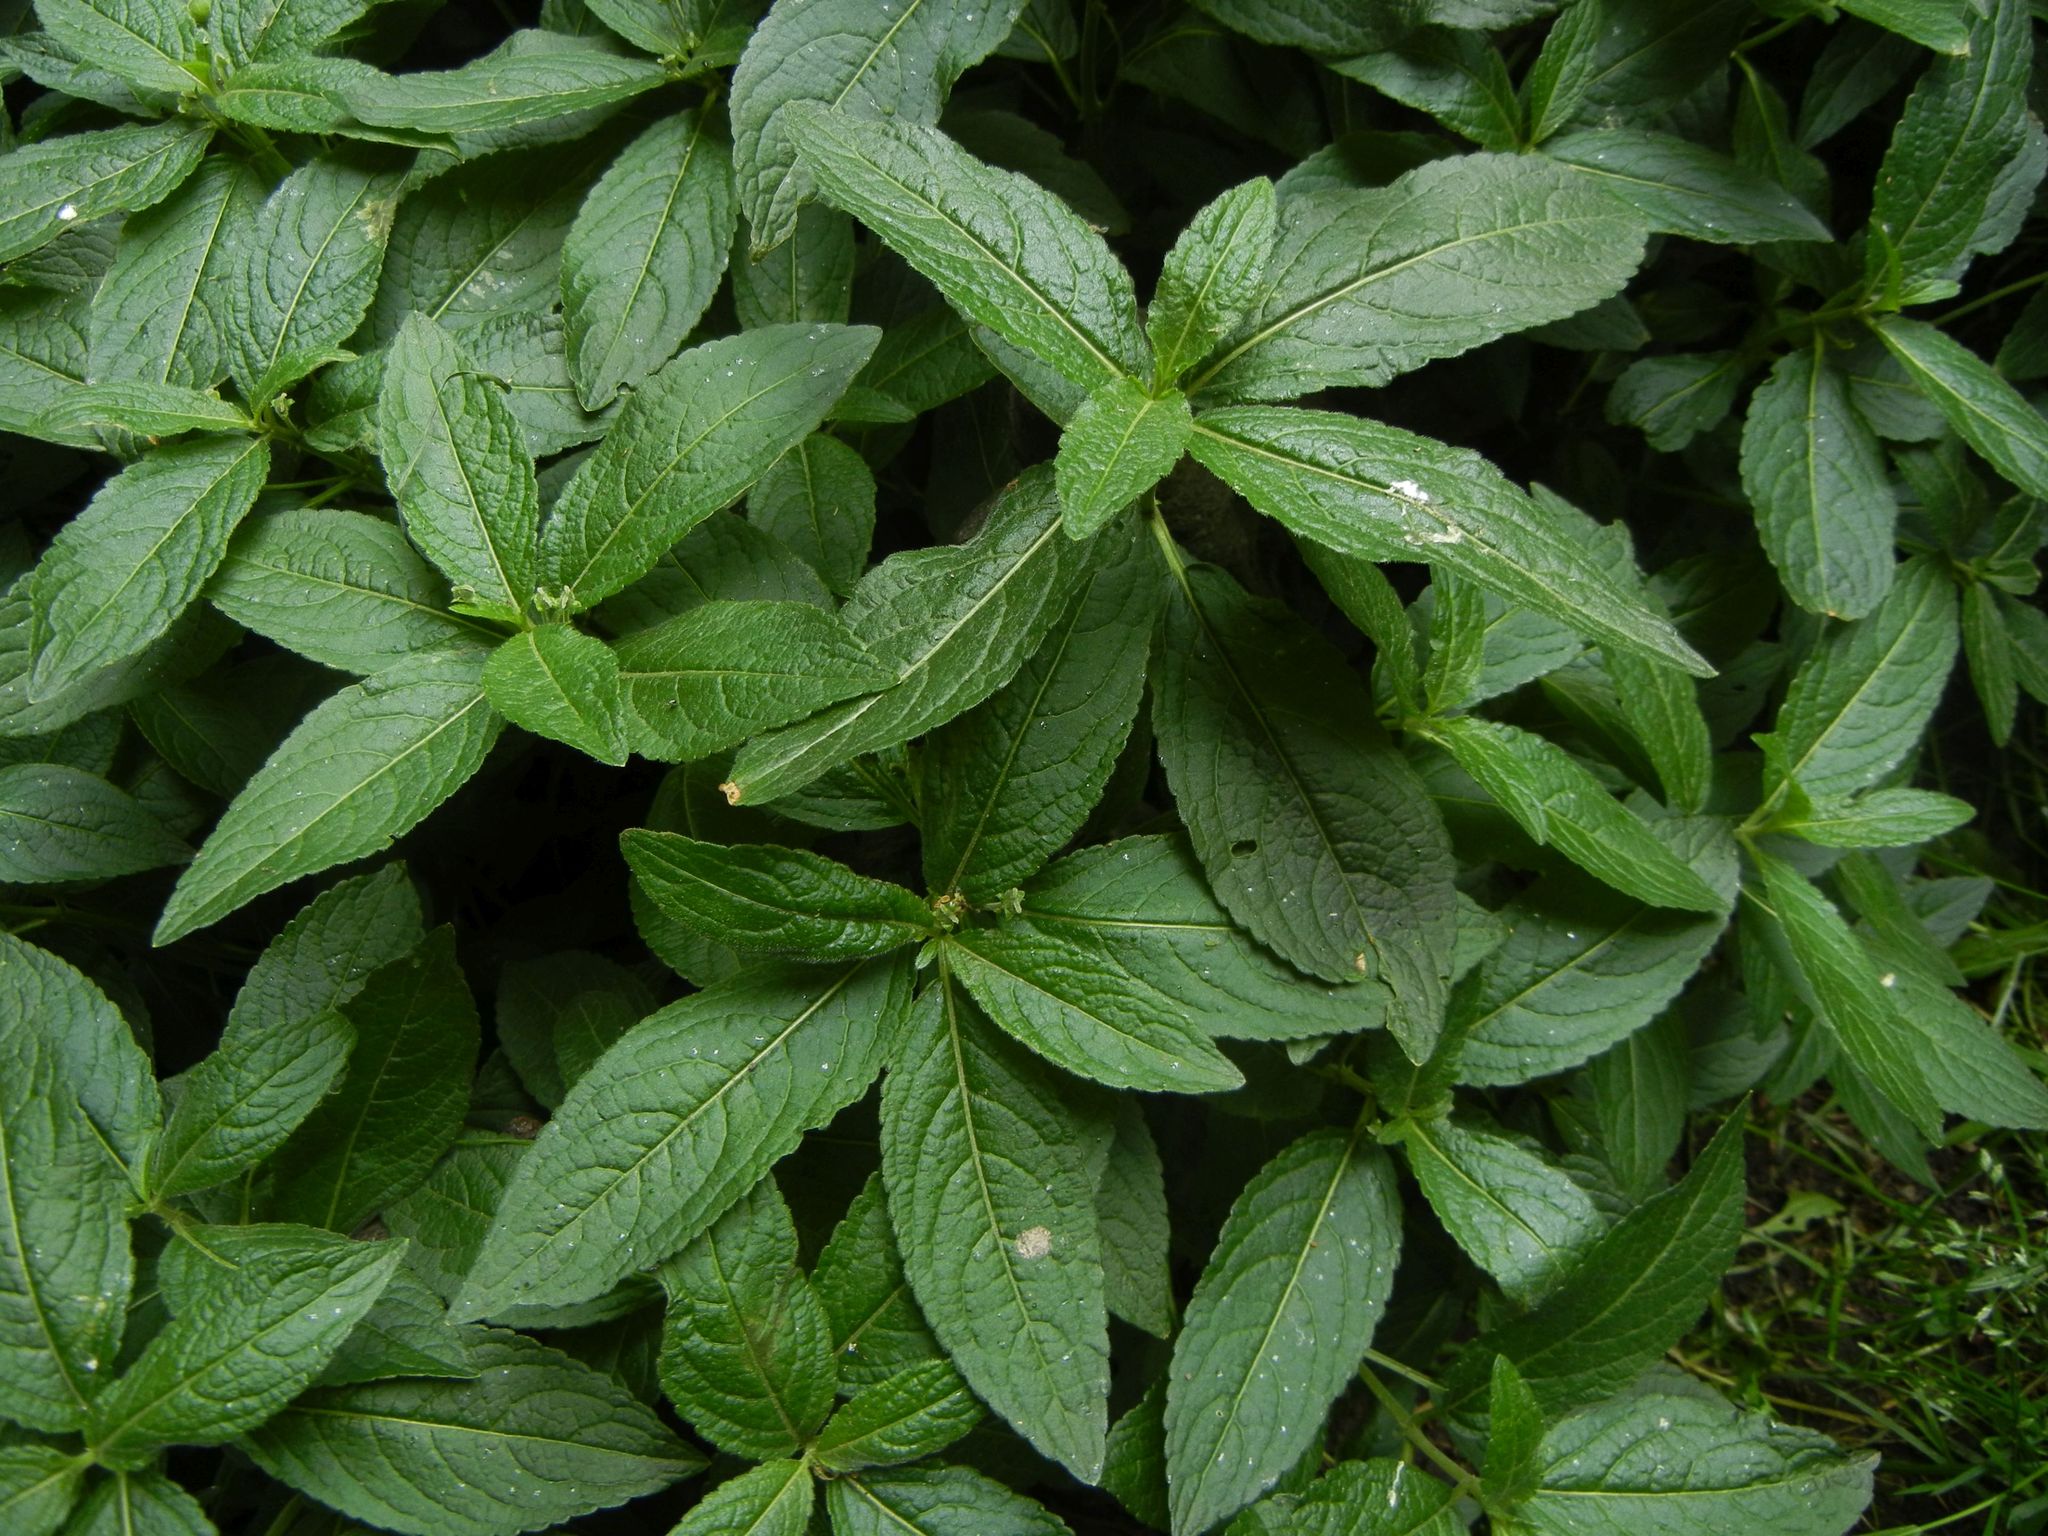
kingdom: Plantae
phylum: Tracheophyta
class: Magnoliopsida
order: Malpighiales
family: Euphorbiaceae
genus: Mercurialis
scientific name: Mercurialis perennis
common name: Dog mercury
